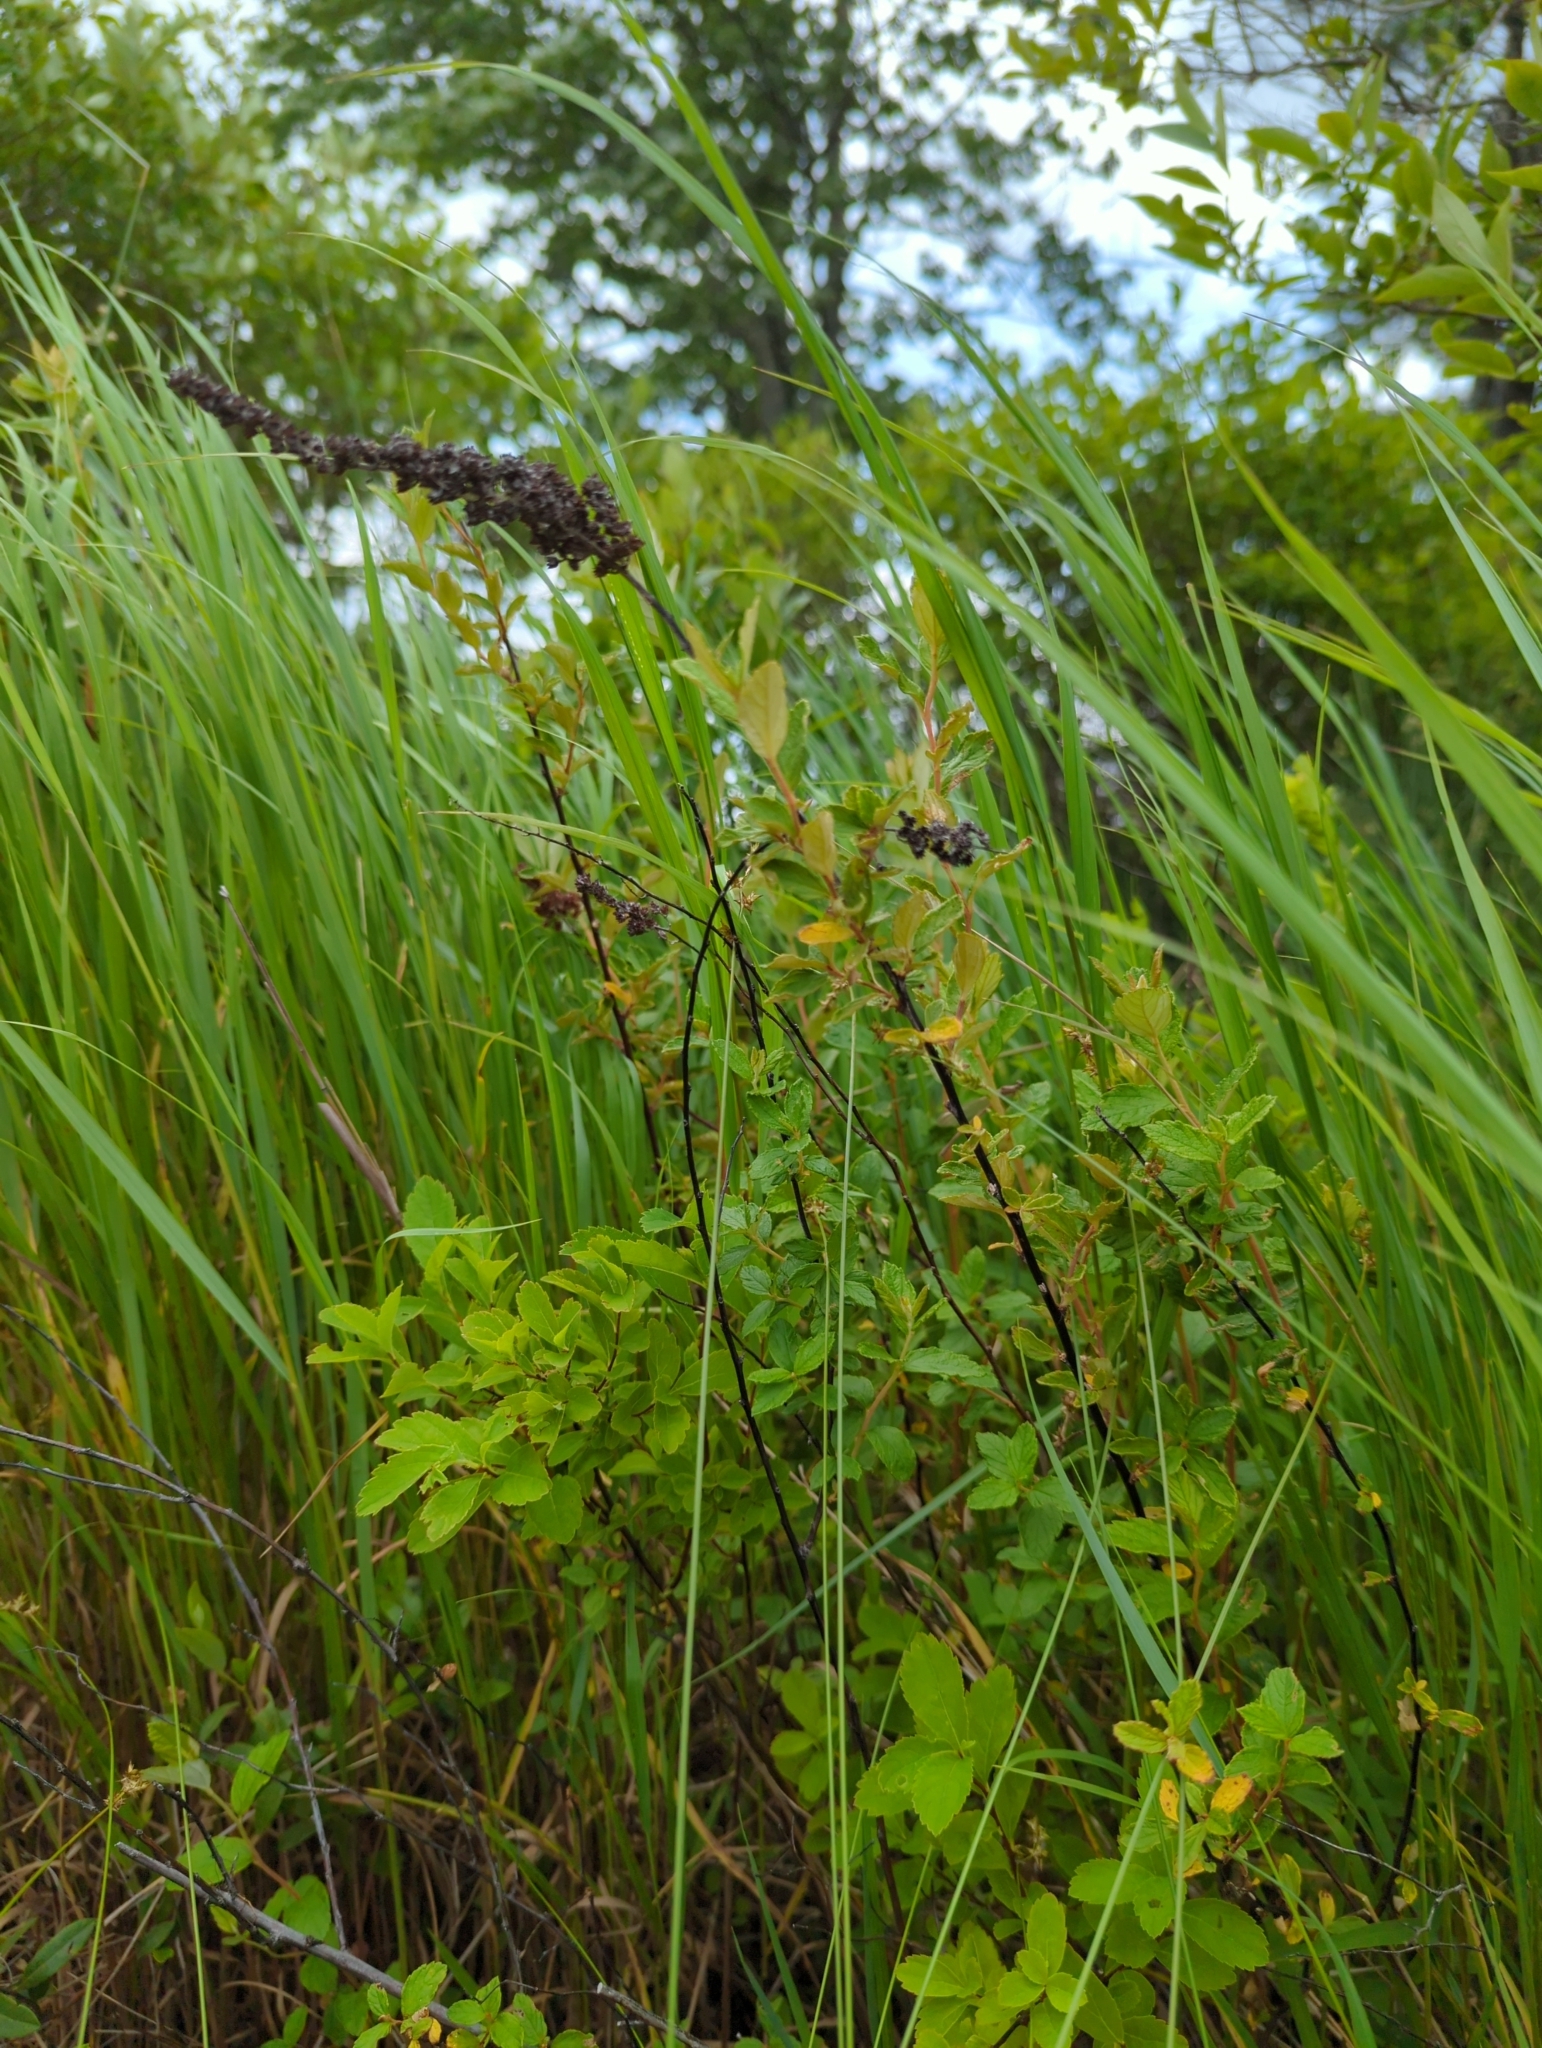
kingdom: Plantae
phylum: Tracheophyta
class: Magnoliopsida
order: Rosales
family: Rosaceae
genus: Spiraea
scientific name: Spiraea tomentosa
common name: Hardhack
